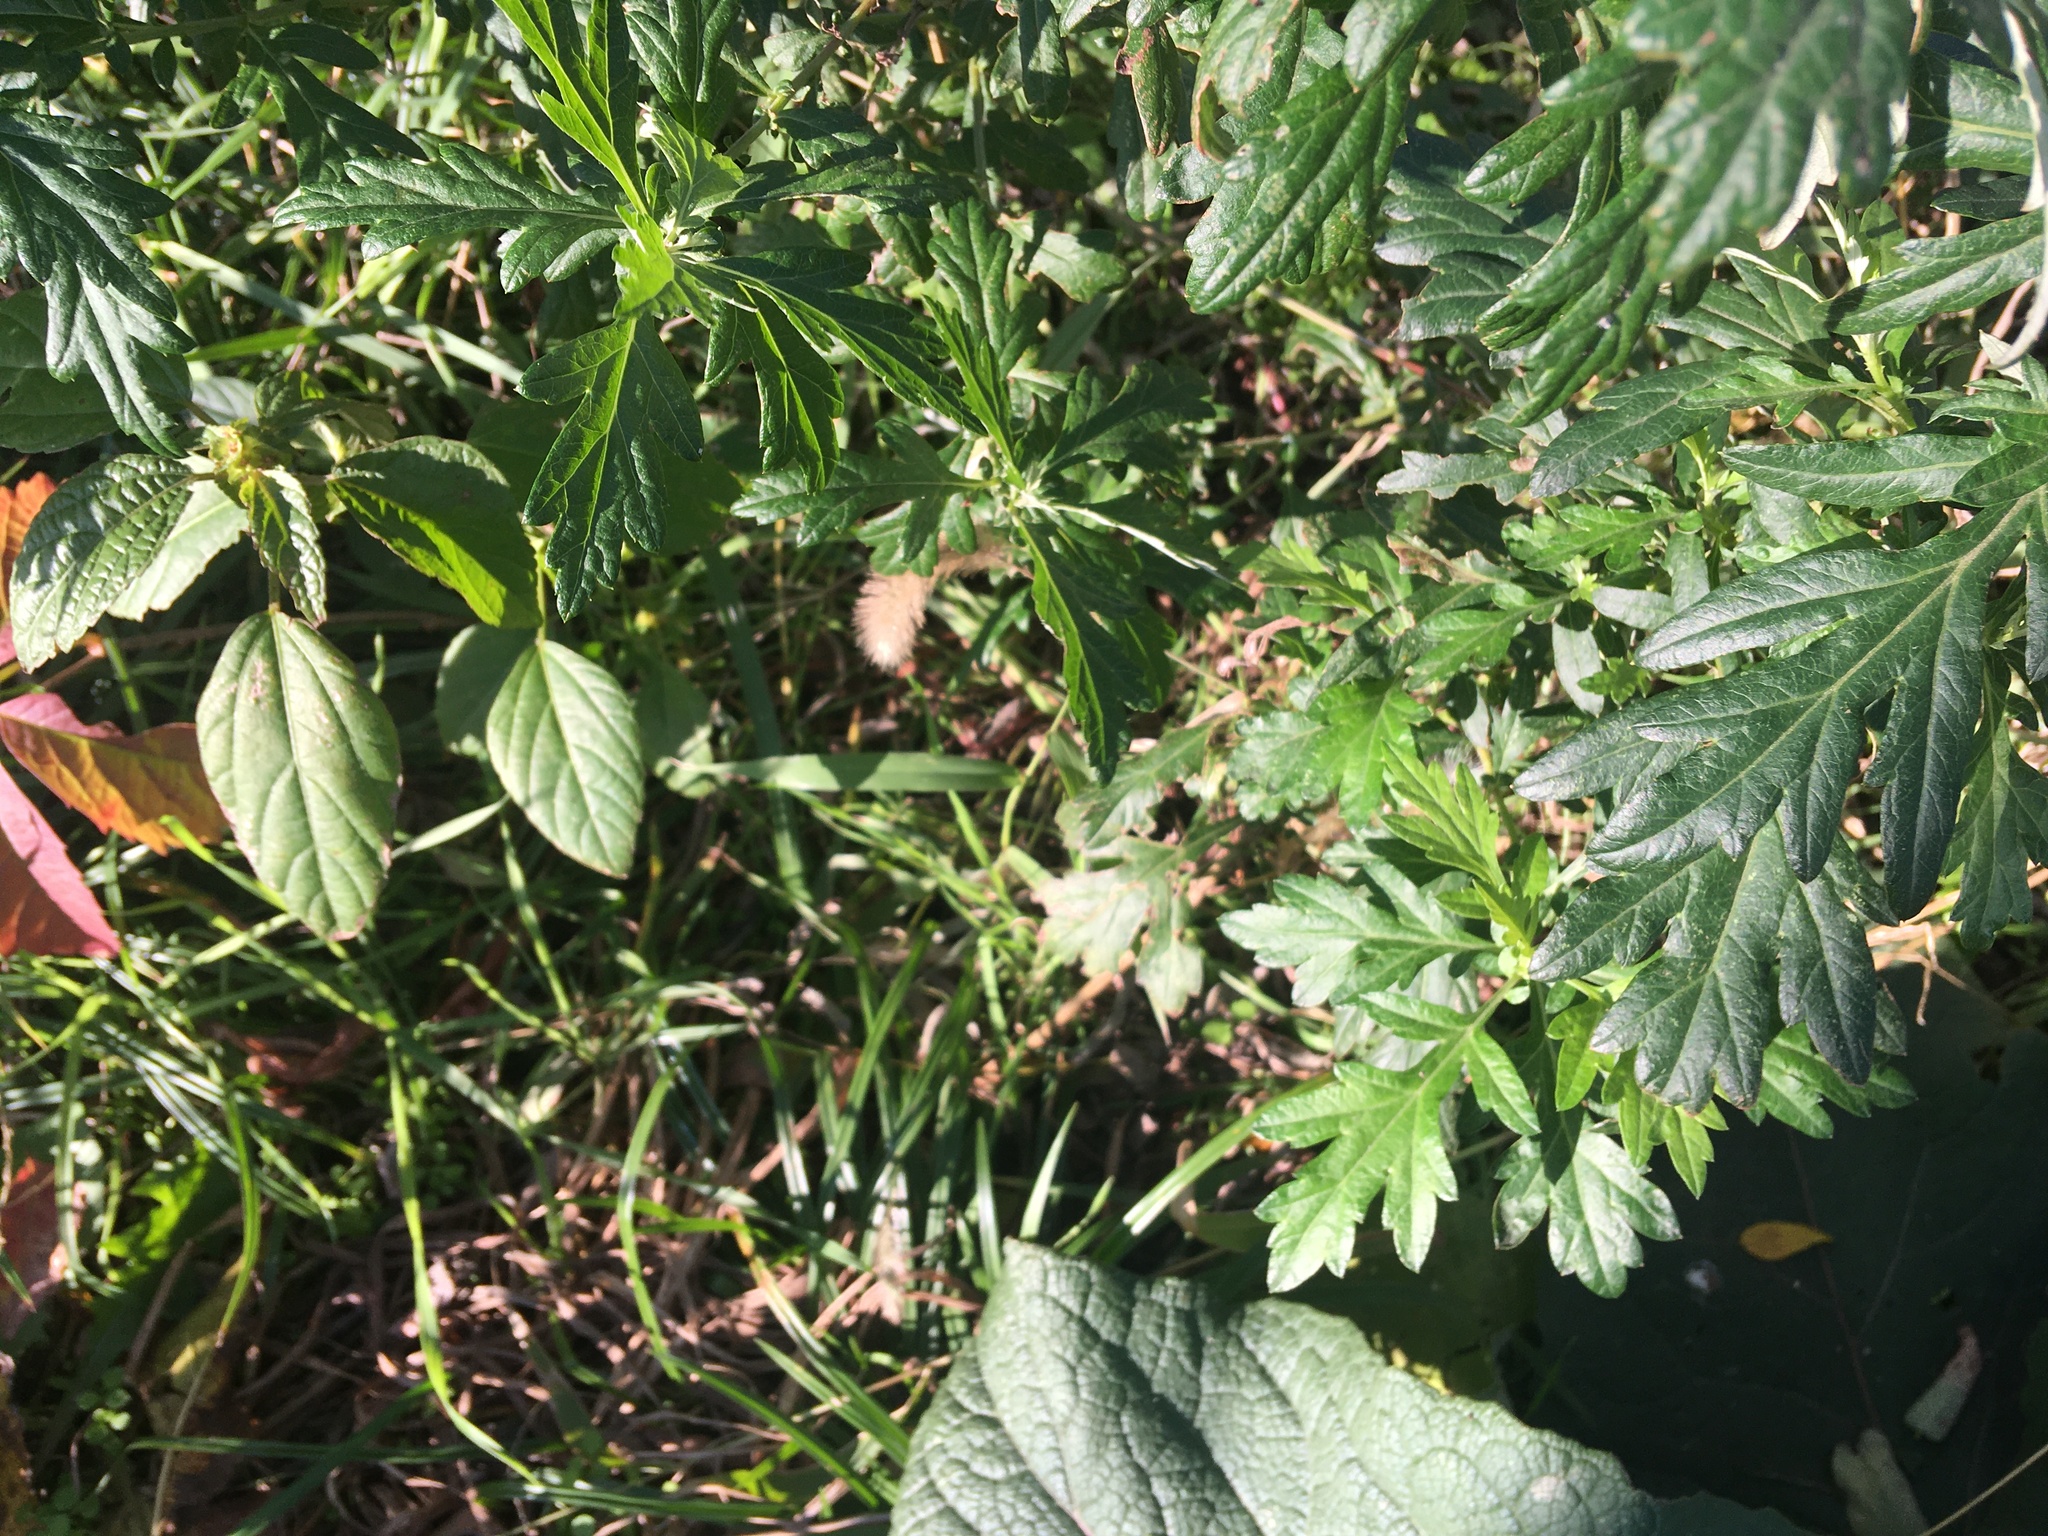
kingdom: Plantae
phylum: Tracheophyta
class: Magnoliopsida
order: Asterales
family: Asteraceae
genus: Artemisia
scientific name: Artemisia vulgaris
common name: Mugwort
